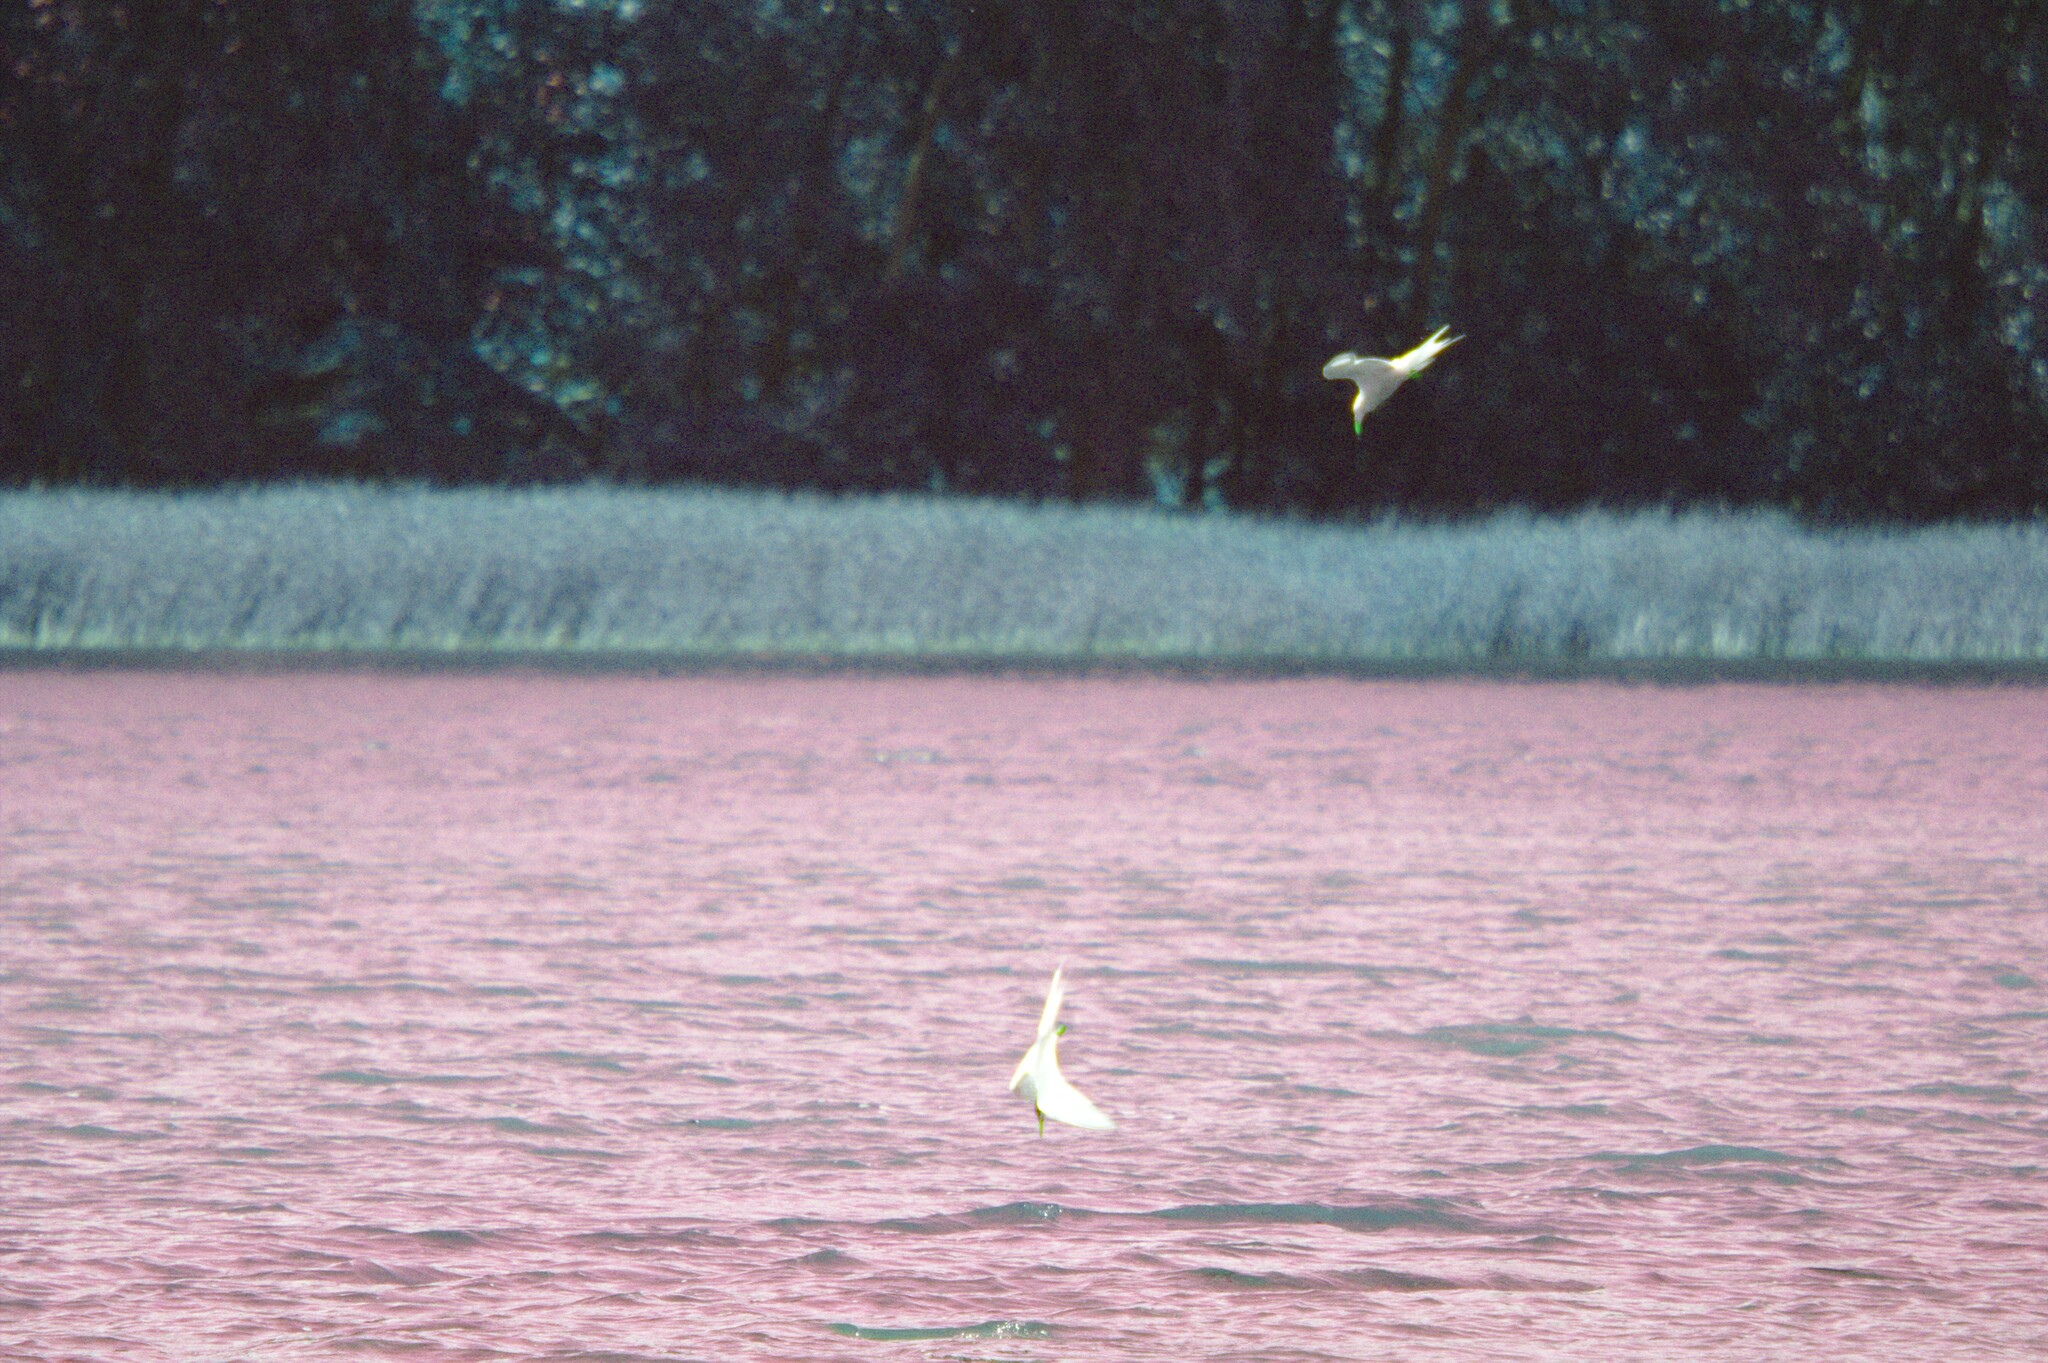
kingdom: Animalia
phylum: Chordata
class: Aves
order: Charadriiformes
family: Laridae
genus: Sterna
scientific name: Sterna hirundo
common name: Common tern
